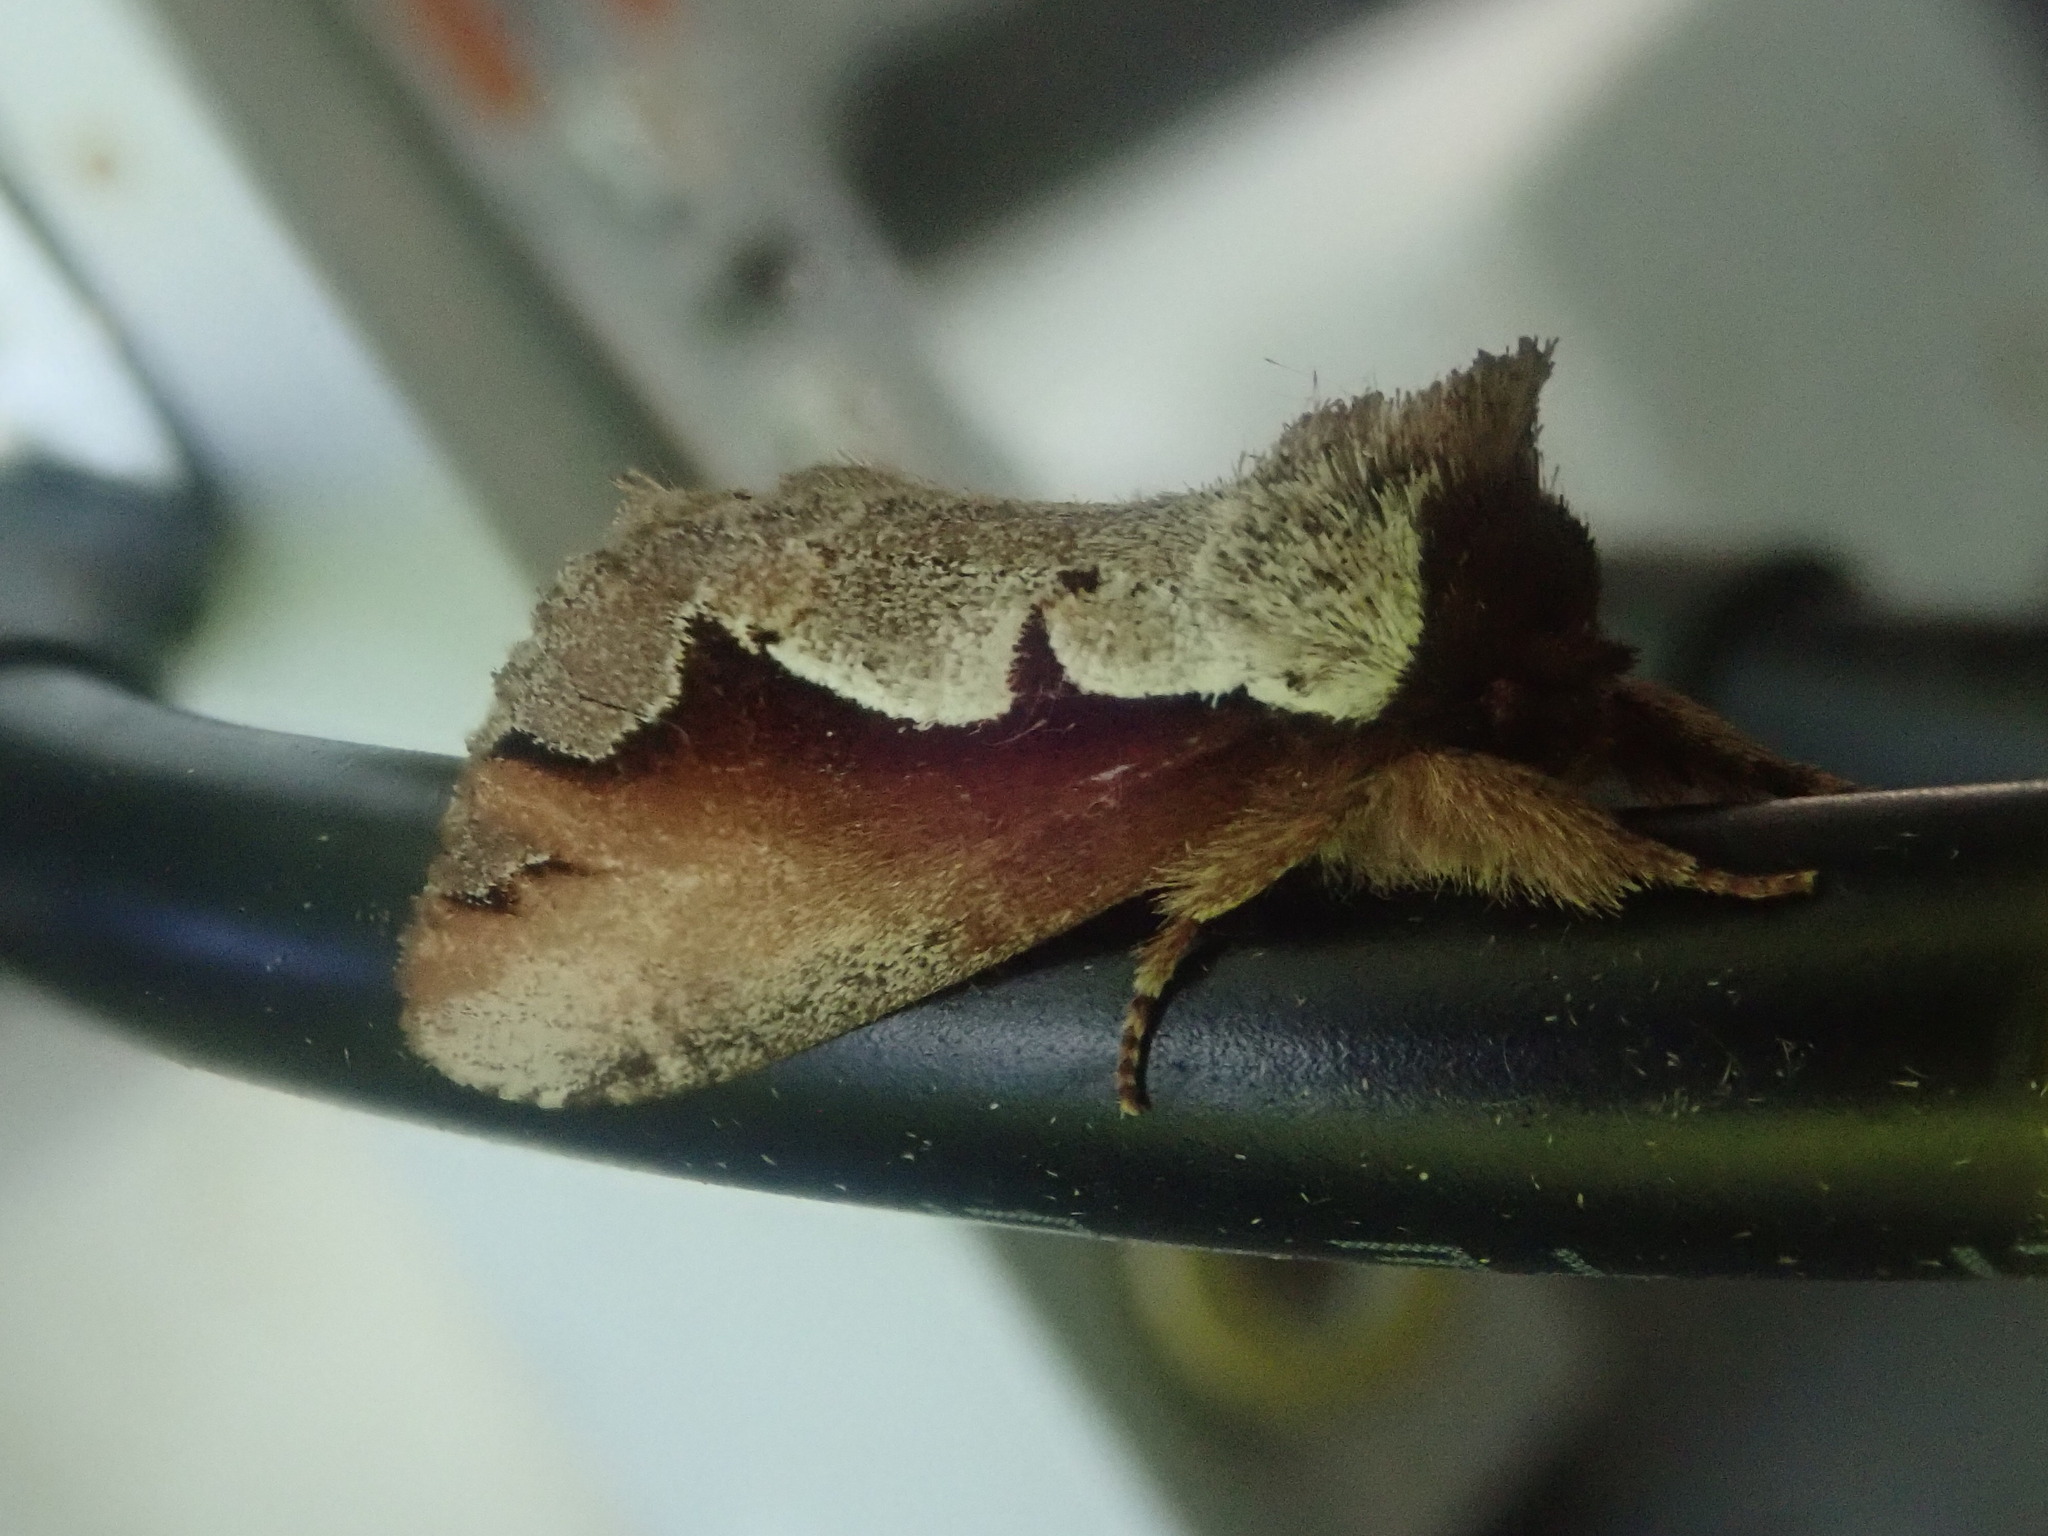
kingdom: Animalia
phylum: Arthropoda
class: Insecta
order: Lepidoptera
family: Notodontidae
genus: Nerice
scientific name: Nerice bidentata
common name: Double-toothed prominent
